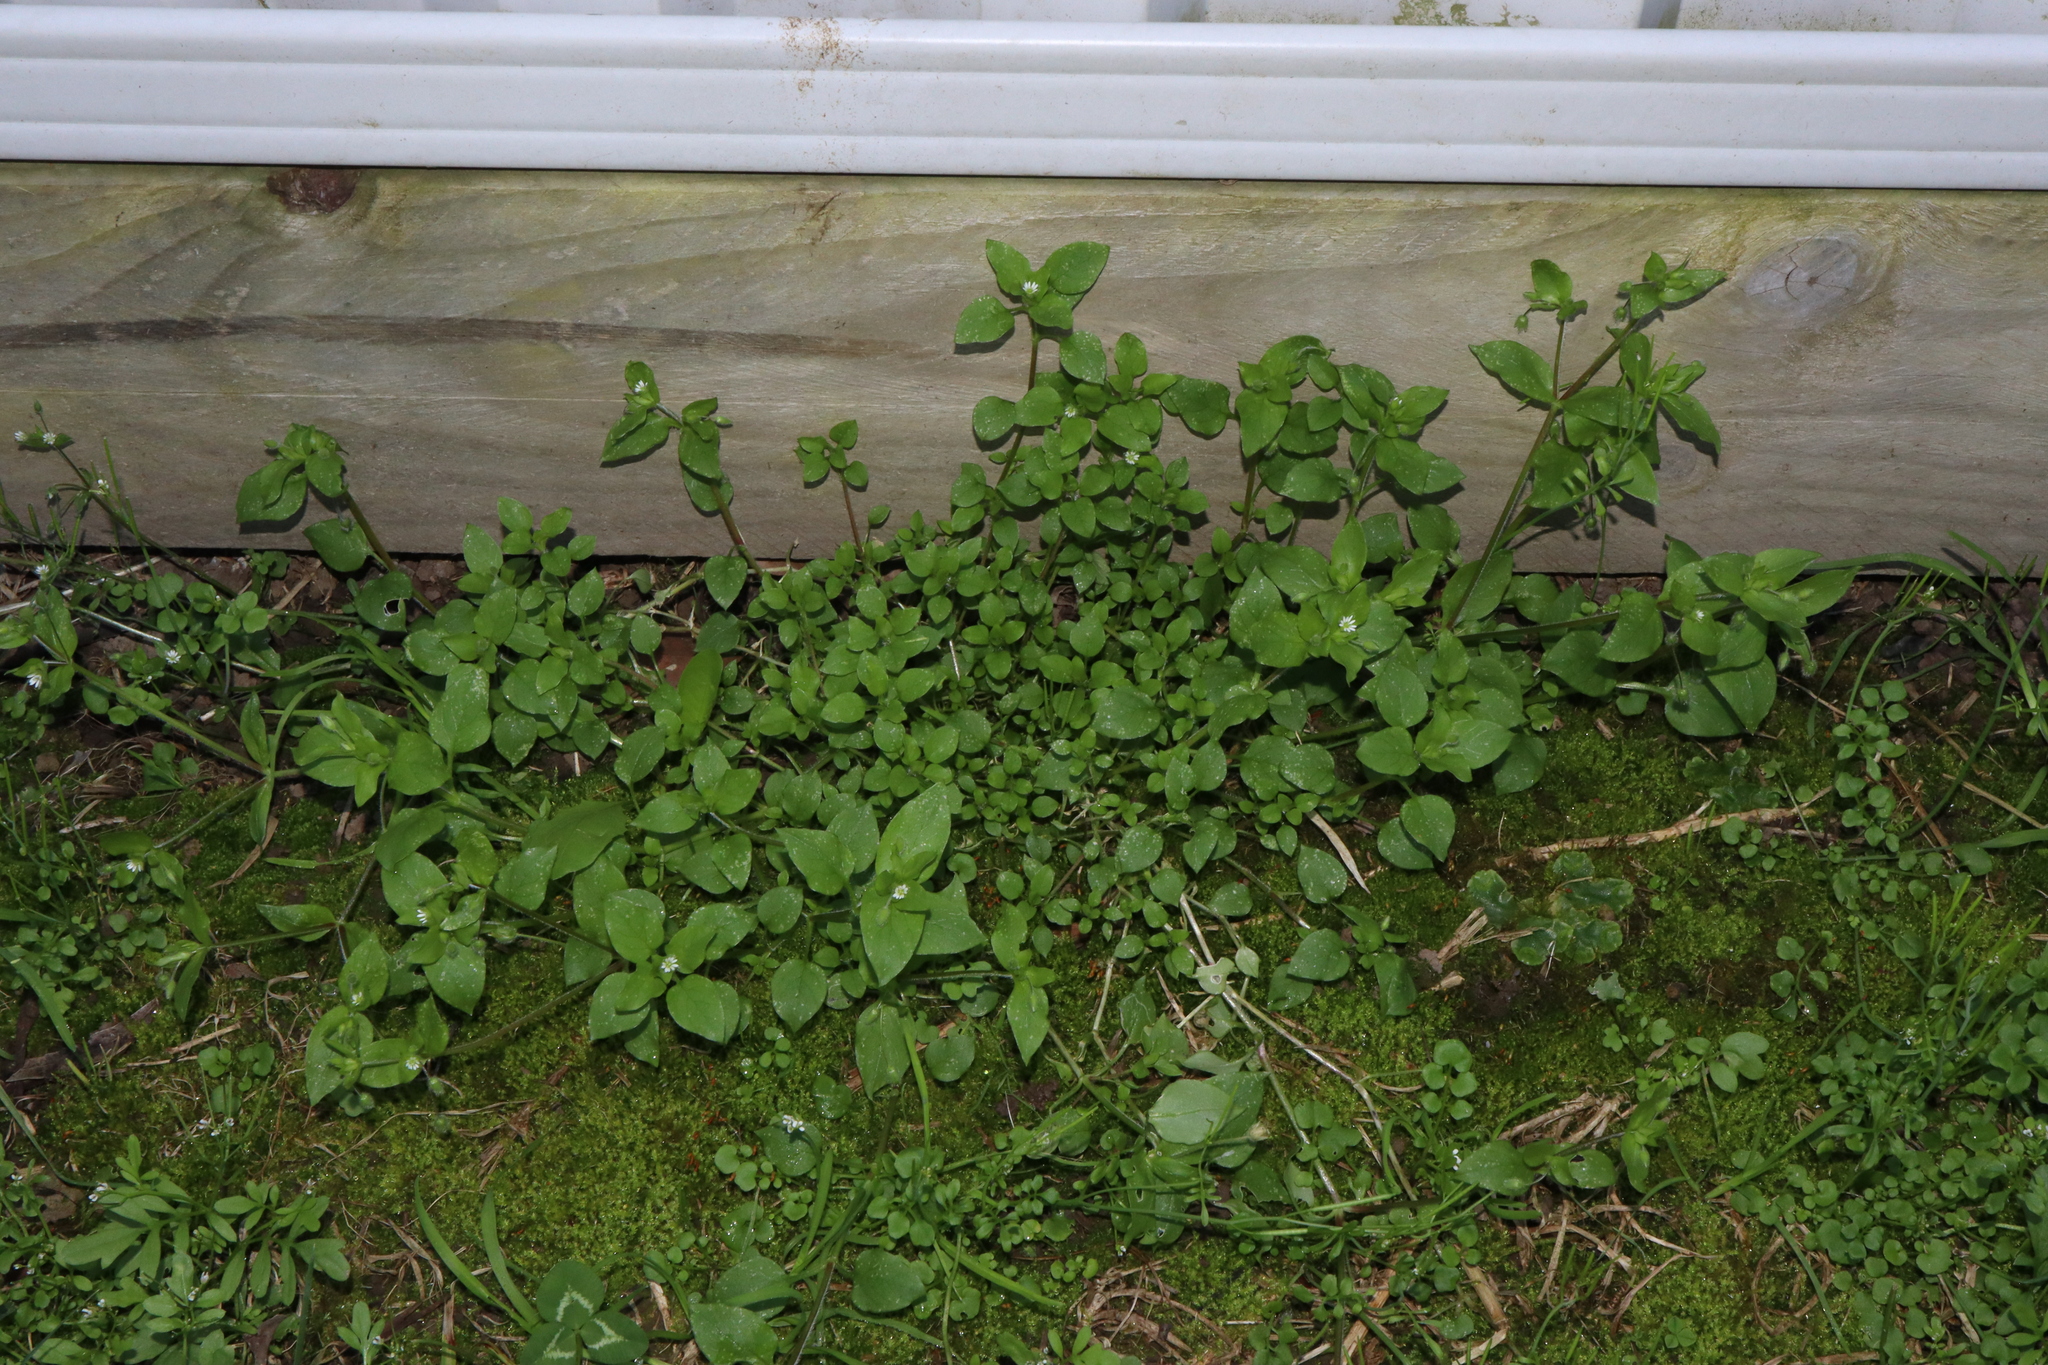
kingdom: Plantae
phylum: Tracheophyta
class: Magnoliopsida
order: Caryophyllales
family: Caryophyllaceae
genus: Stellaria
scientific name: Stellaria media
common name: Common chickweed
